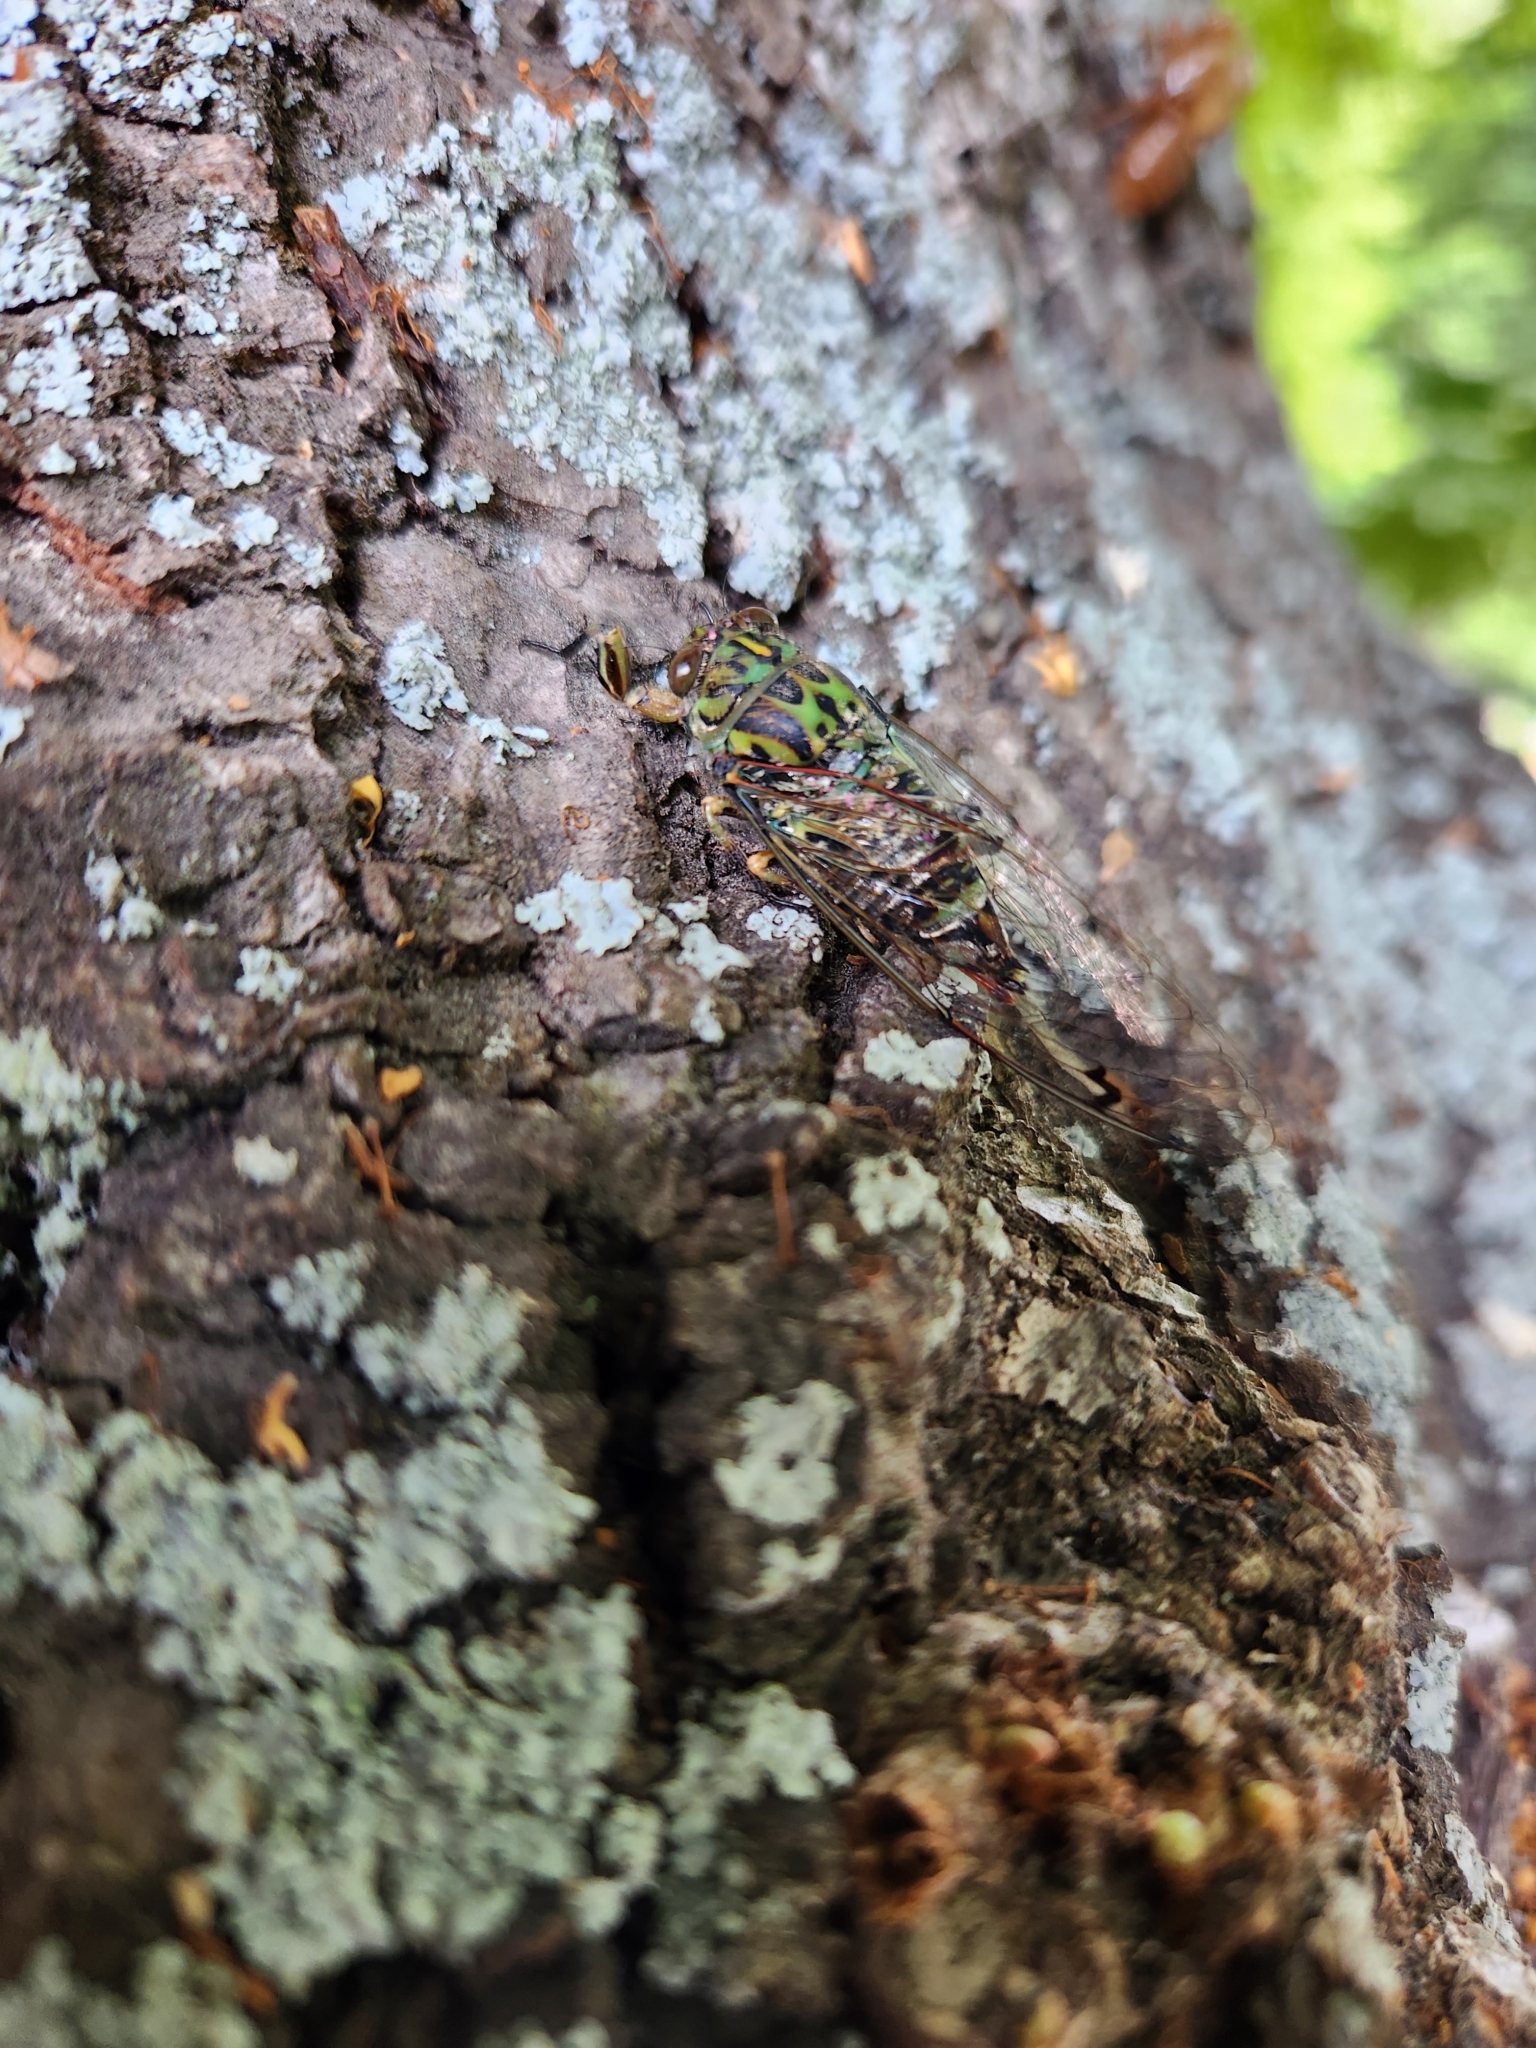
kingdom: Animalia
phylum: Arthropoda
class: Insecta
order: Hemiptera
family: Cicadidae
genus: Amphipsalta
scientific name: Amphipsalta zelandica
